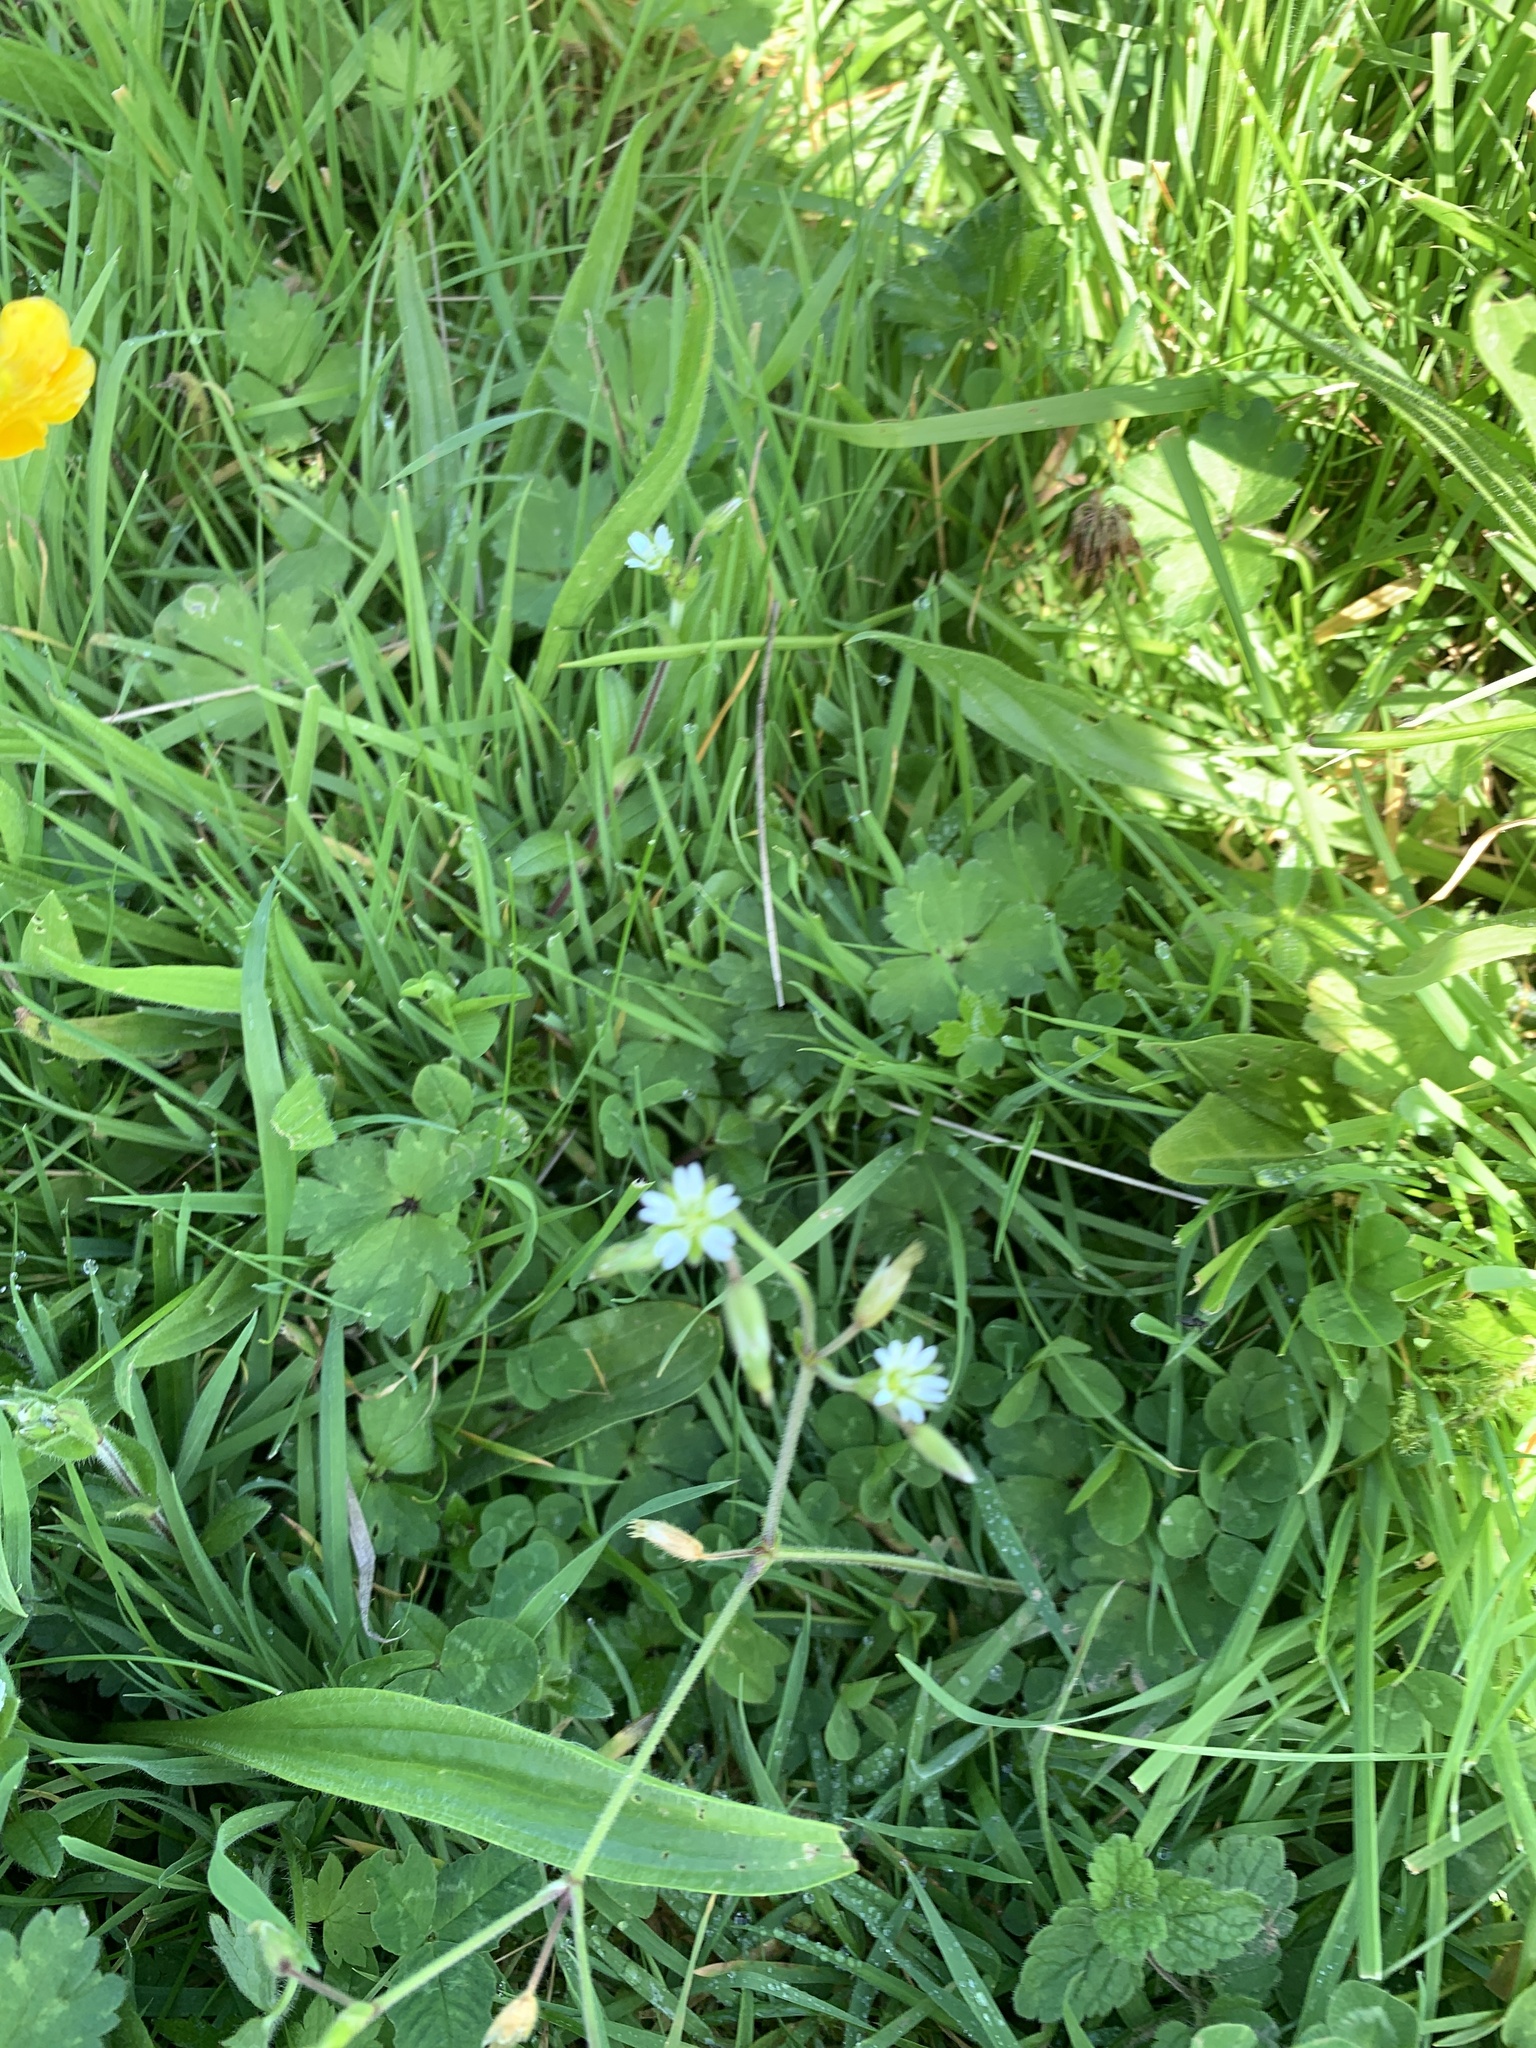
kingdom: Plantae
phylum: Tracheophyta
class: Magnoliopsida
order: Caryophyllales
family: Caryophyllaceae
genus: Cerastium
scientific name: Cerastium fontanum
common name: Common mouse-ear
